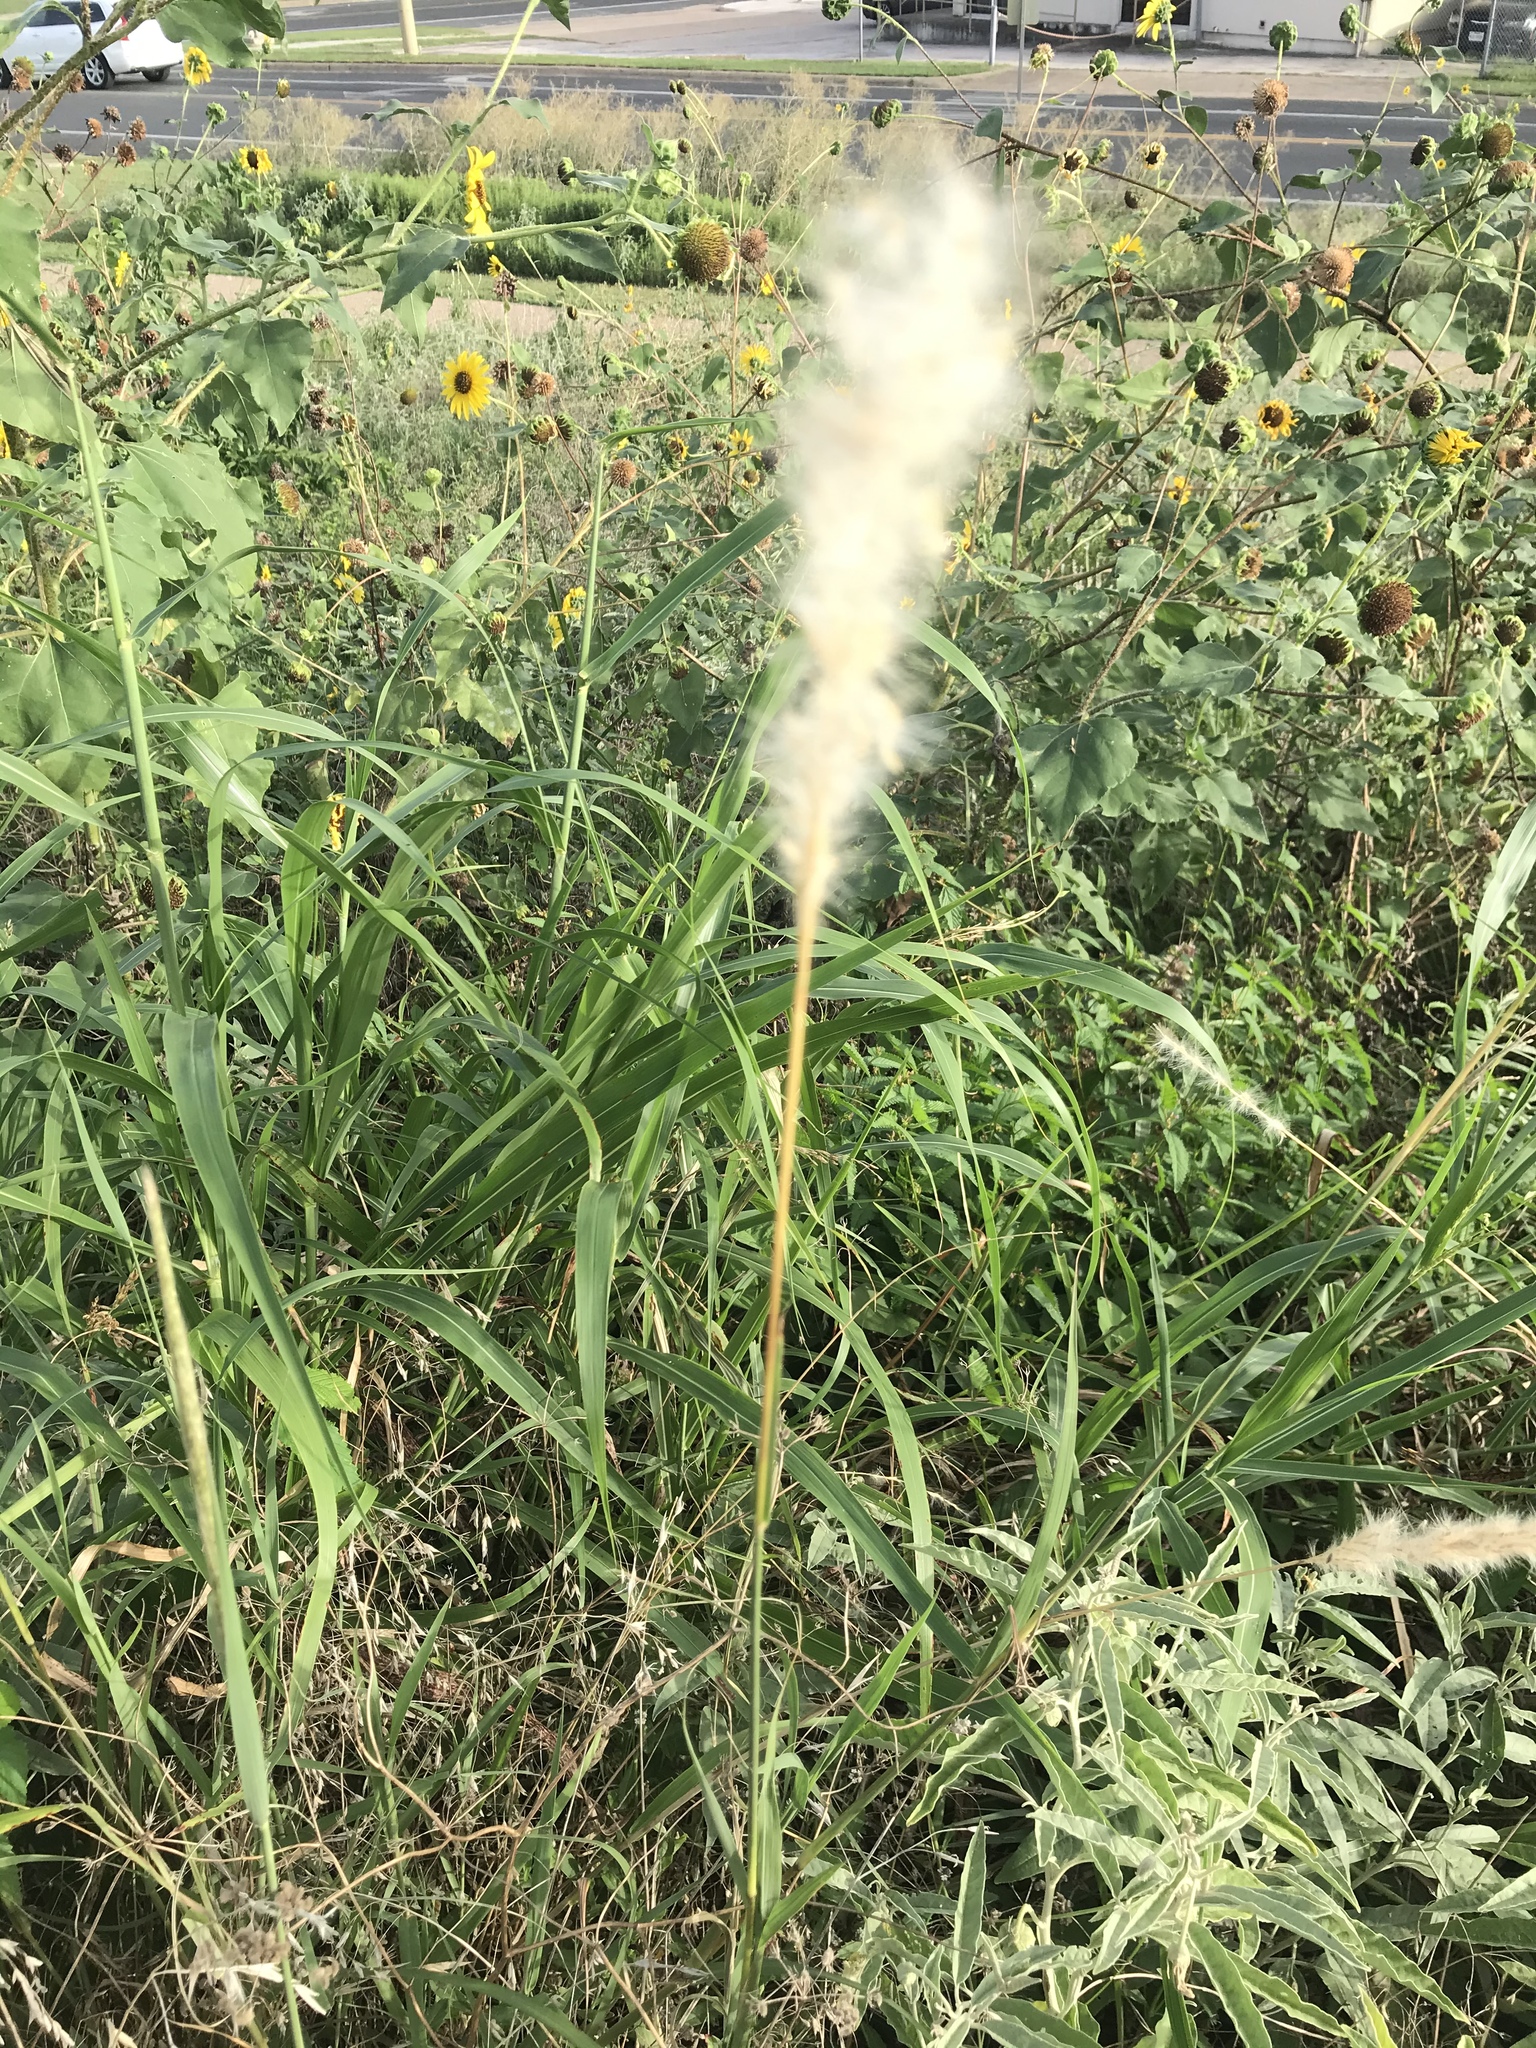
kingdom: Plantae
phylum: Tracheophyta
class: Liliopsida
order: Poales
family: Poaceae
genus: Bothriochloa
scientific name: Bothriochloa torreyana
